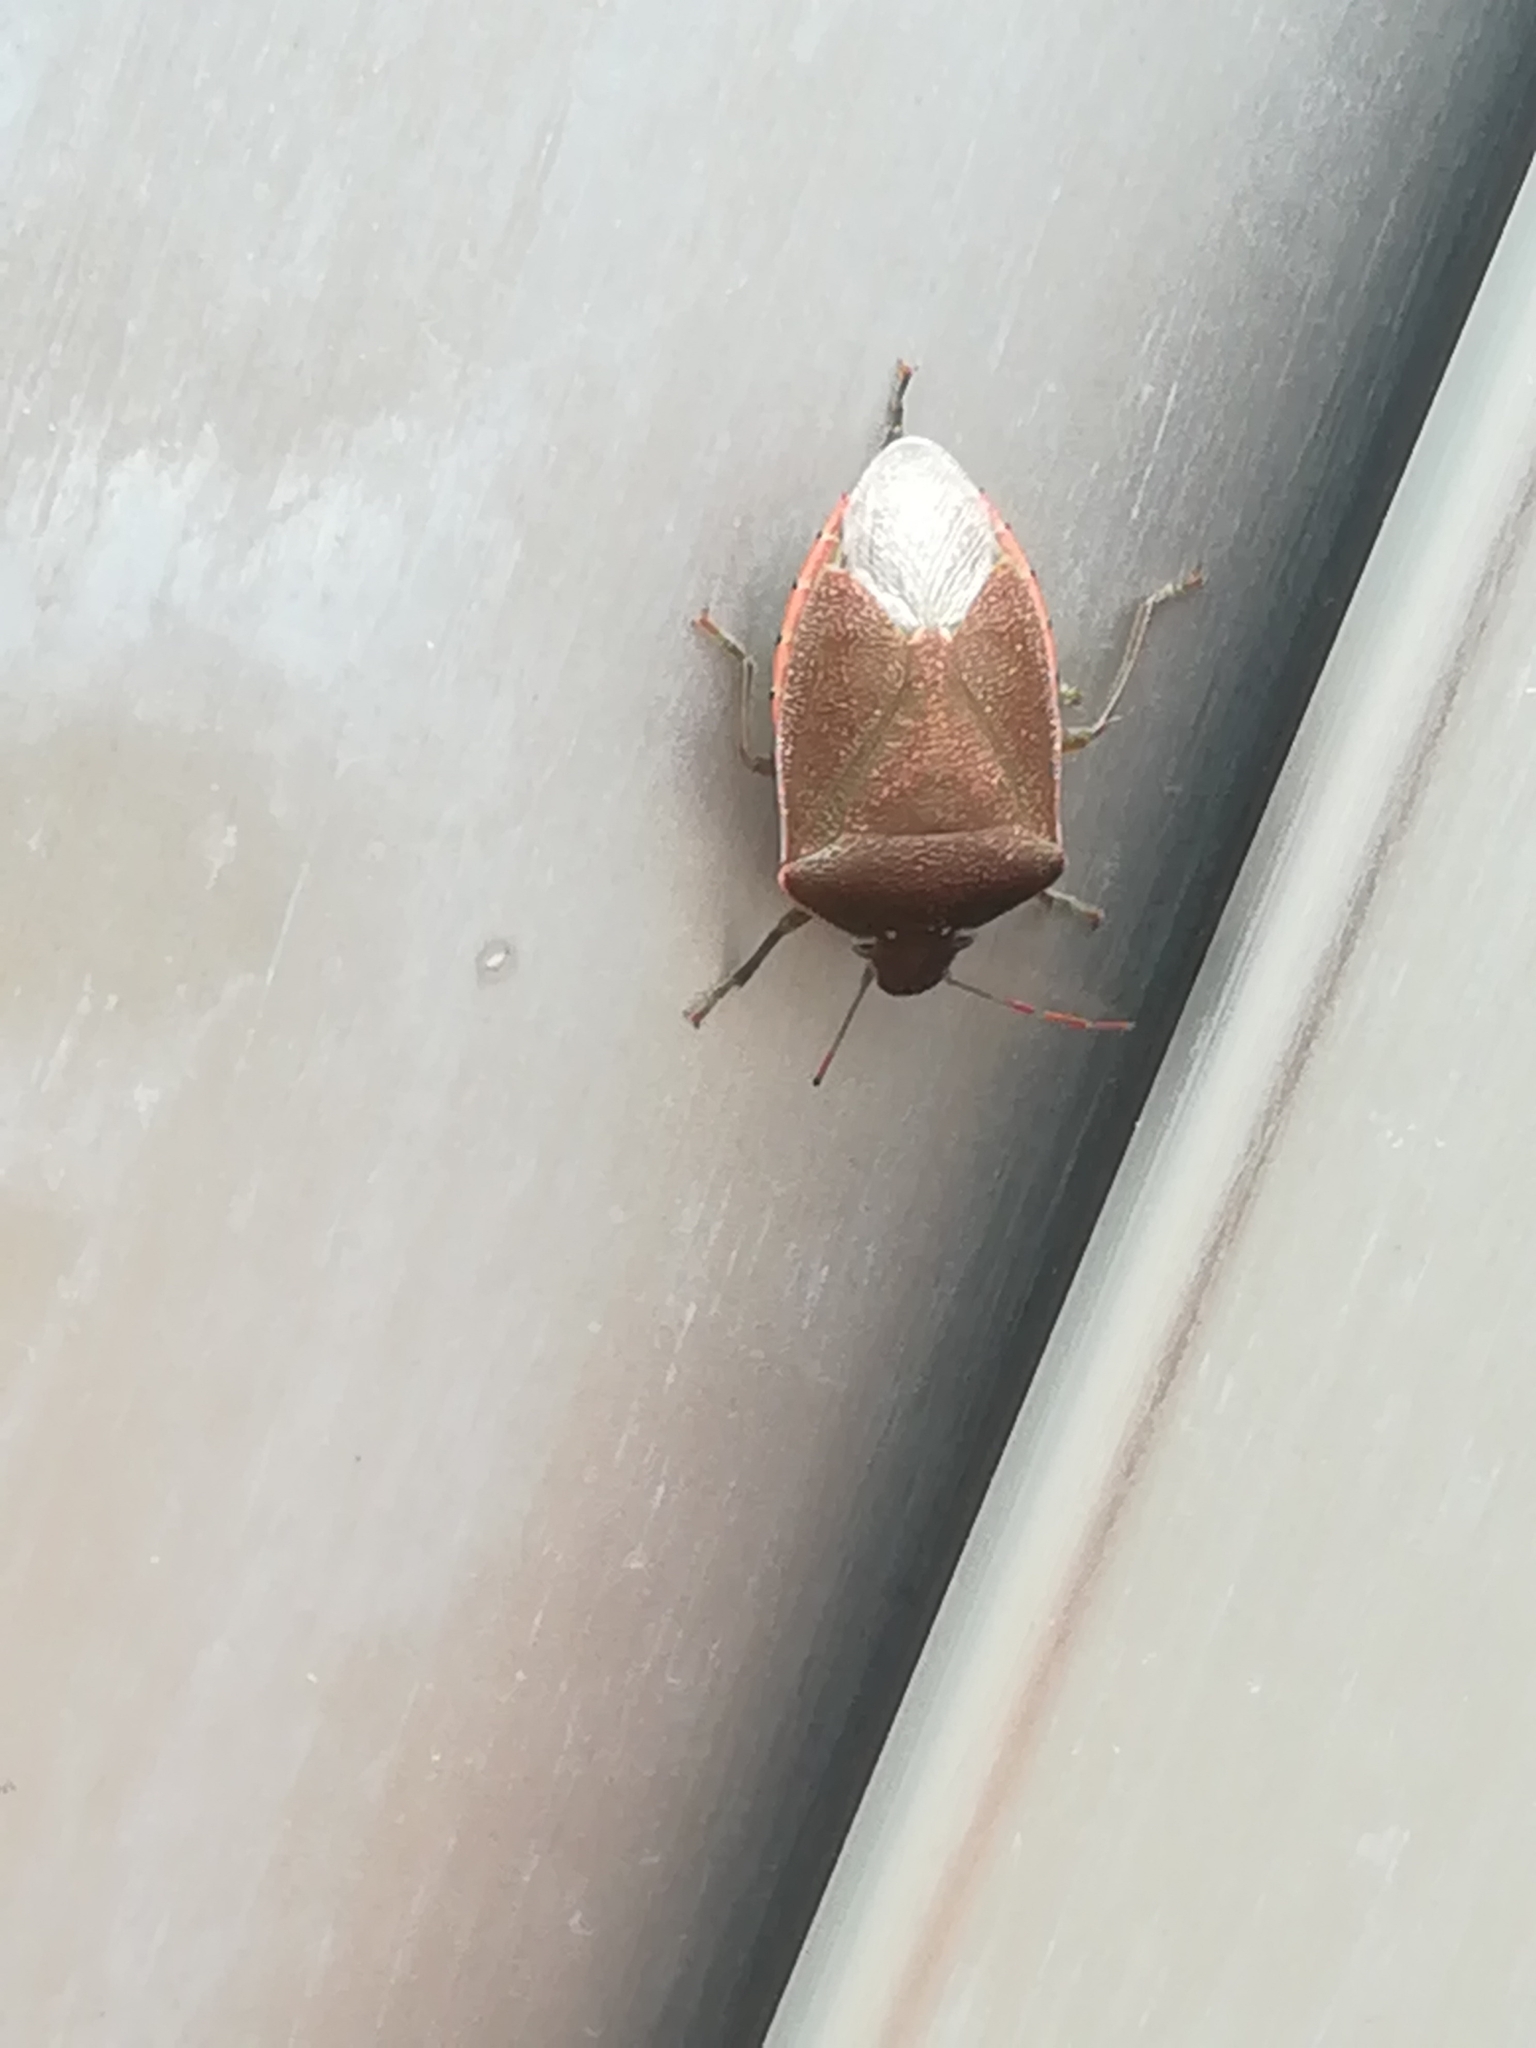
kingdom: Animalia
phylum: Arthropoda
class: Insecta
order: Hemiptera
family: Pentatomidae
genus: Acrosternum
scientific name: Acrosternum heegeri
